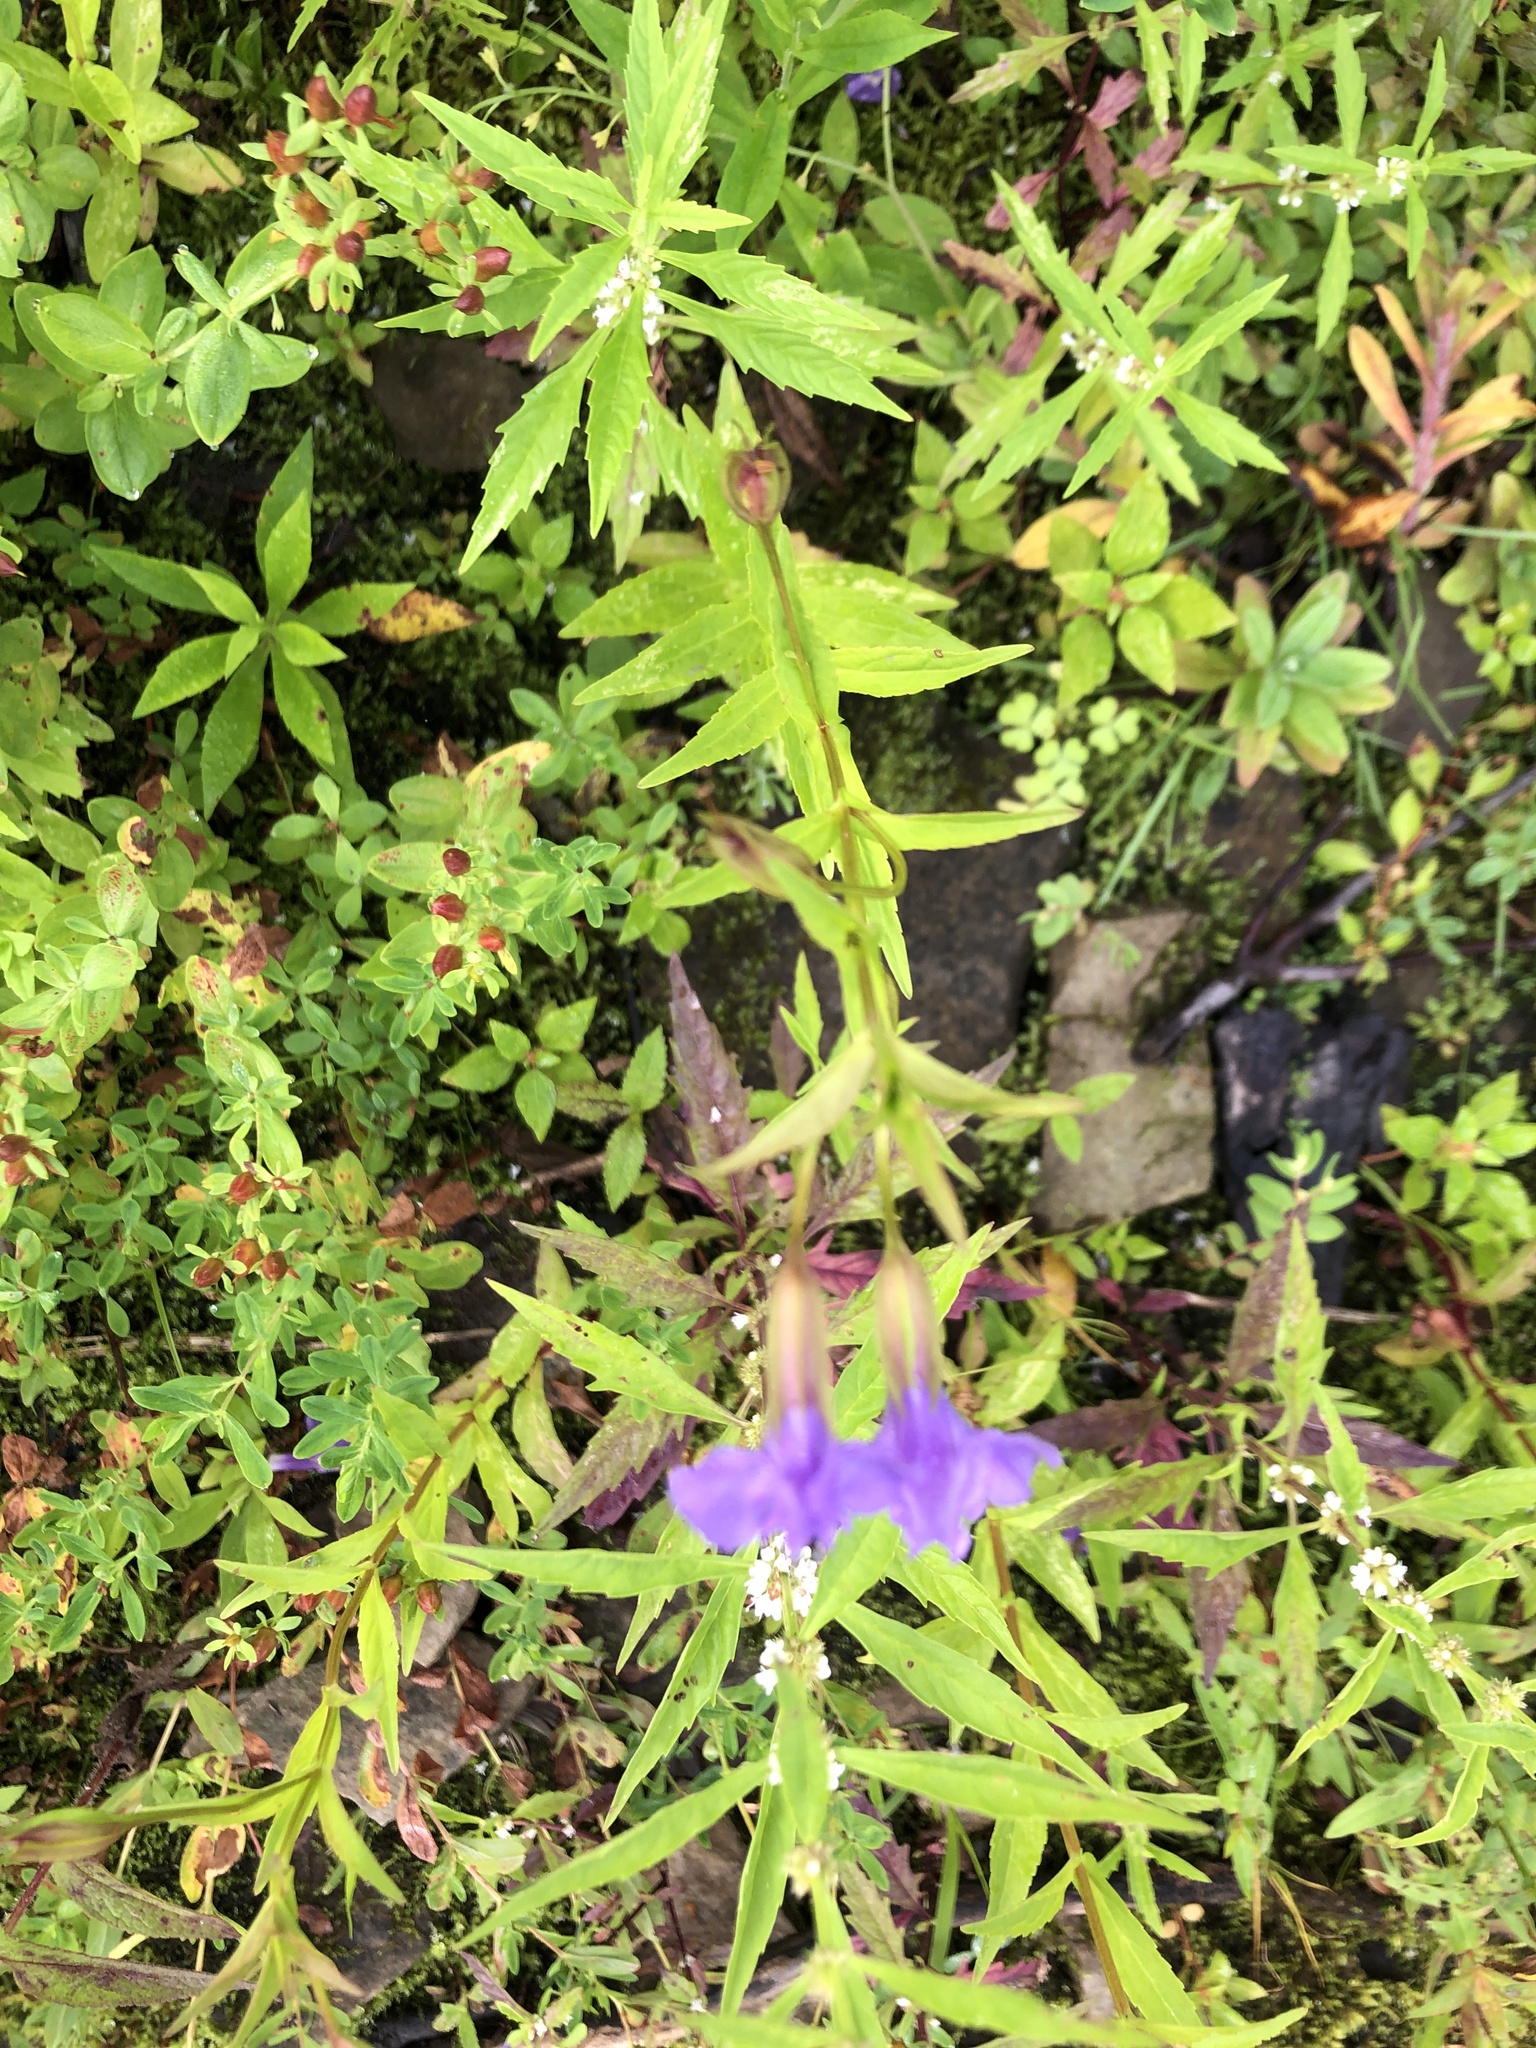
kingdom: Plantae
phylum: Tracheophyta
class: Magnoliopsida
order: Lamiales
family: Phrymaceae
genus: Mimulus
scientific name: Mimulus ringens
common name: Allegheny monkeyflower
